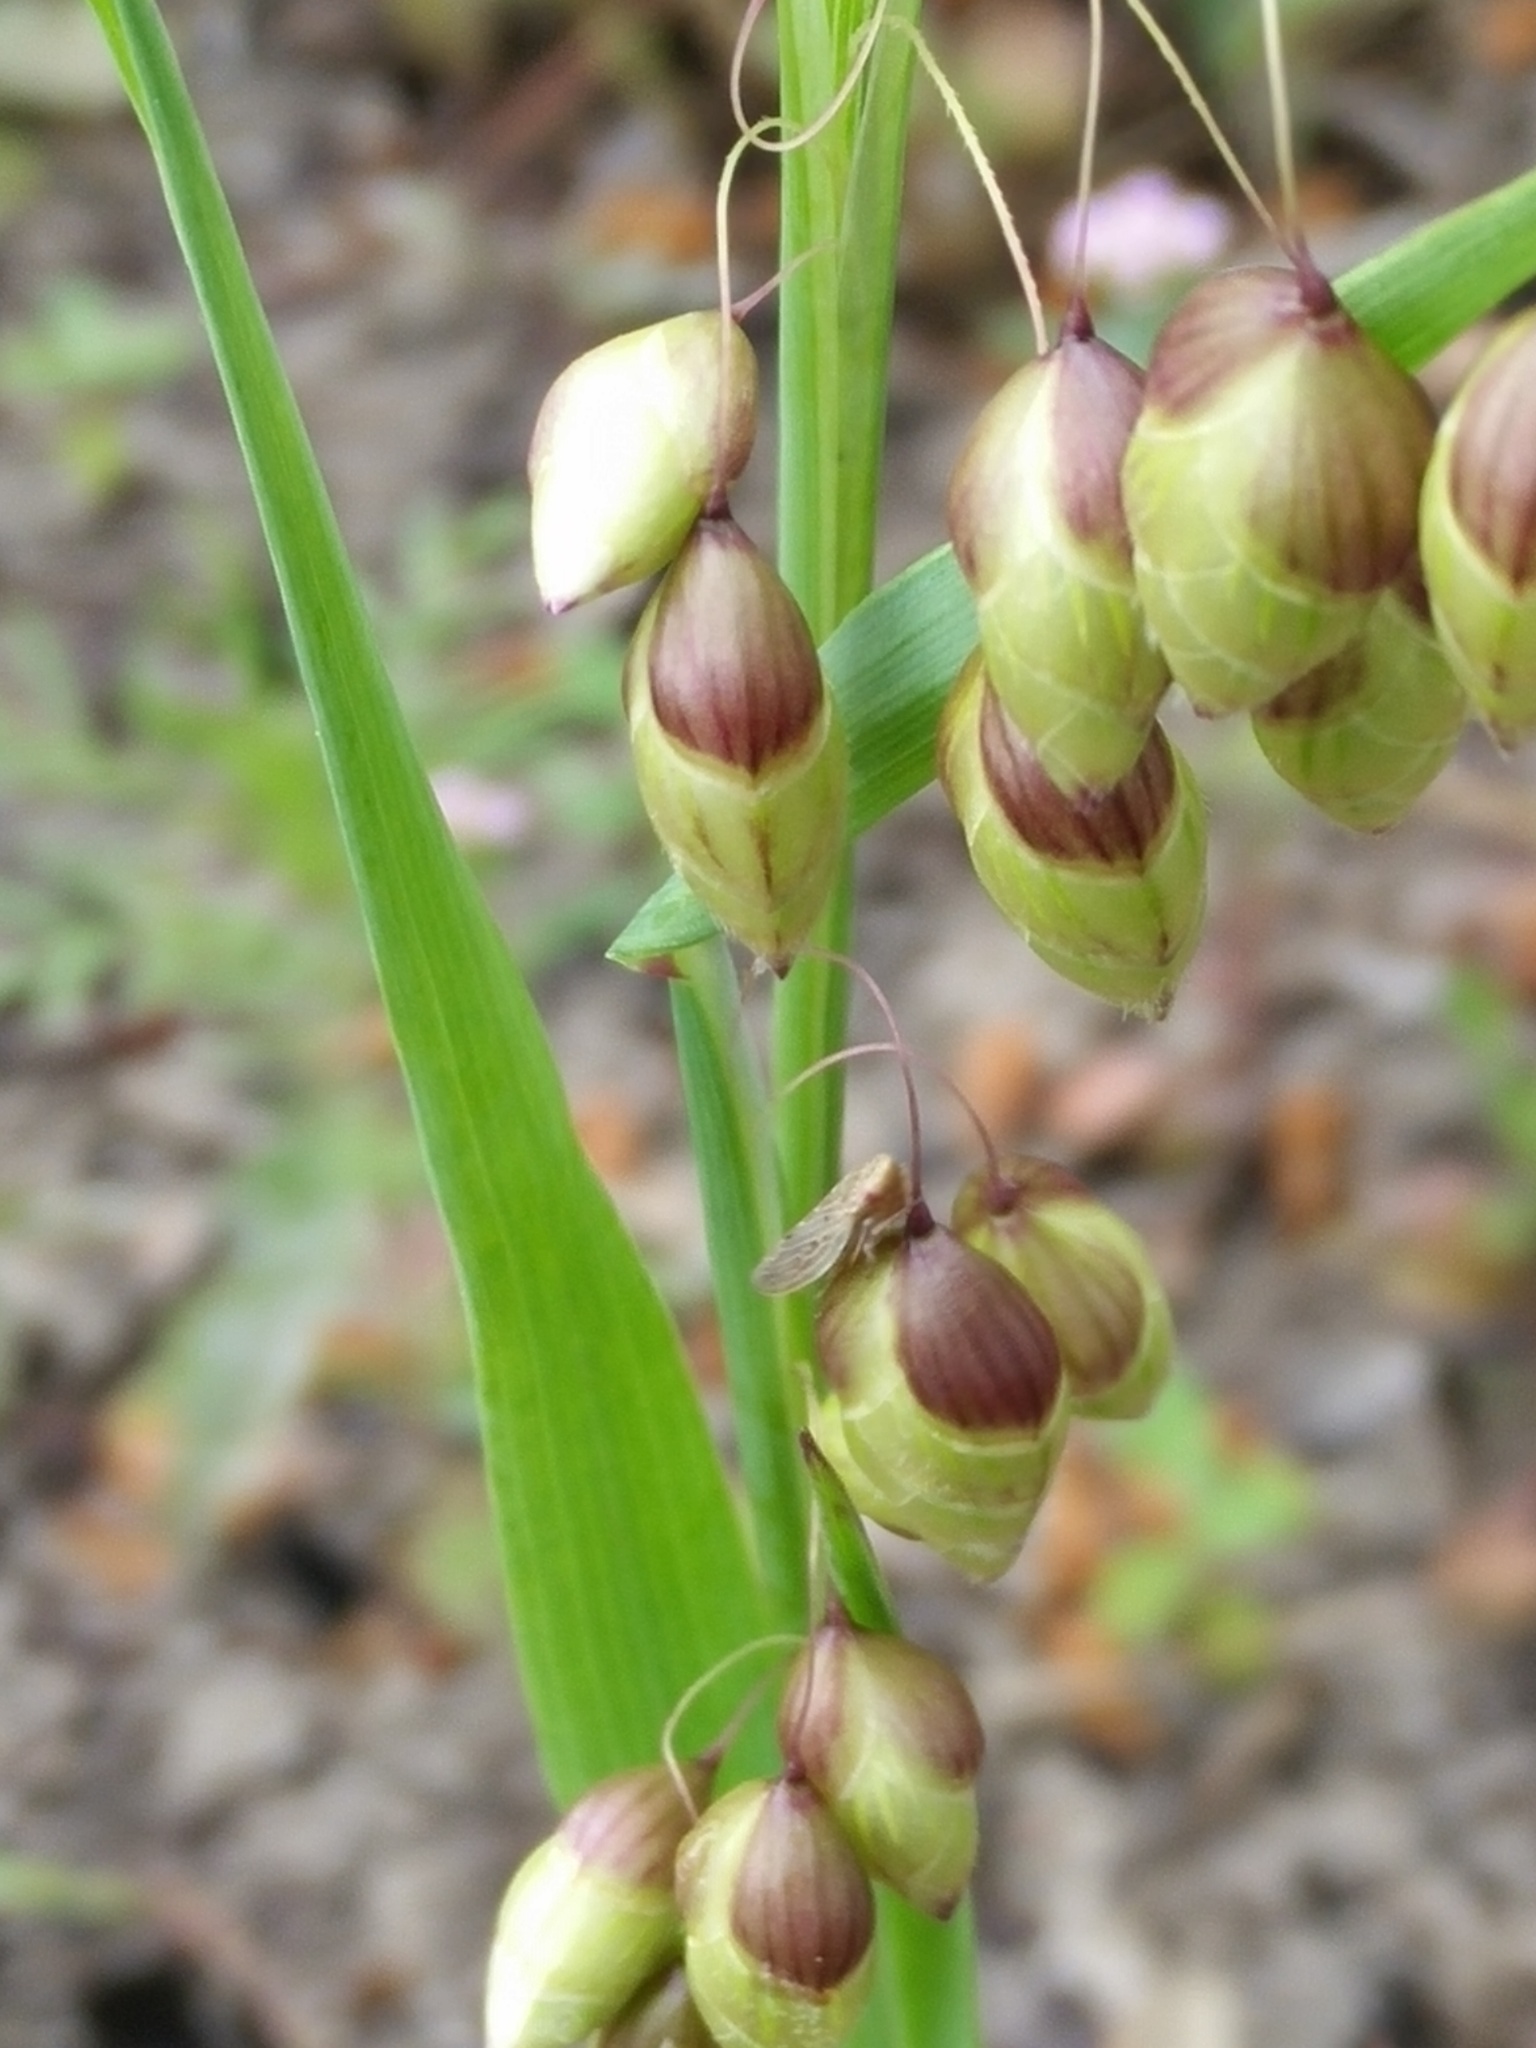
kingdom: Plantae
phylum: Tracheophyta
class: Liliopsida
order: Poales
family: Poaceae
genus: Briza
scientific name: Briza maxima
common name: Big quakinggrass
